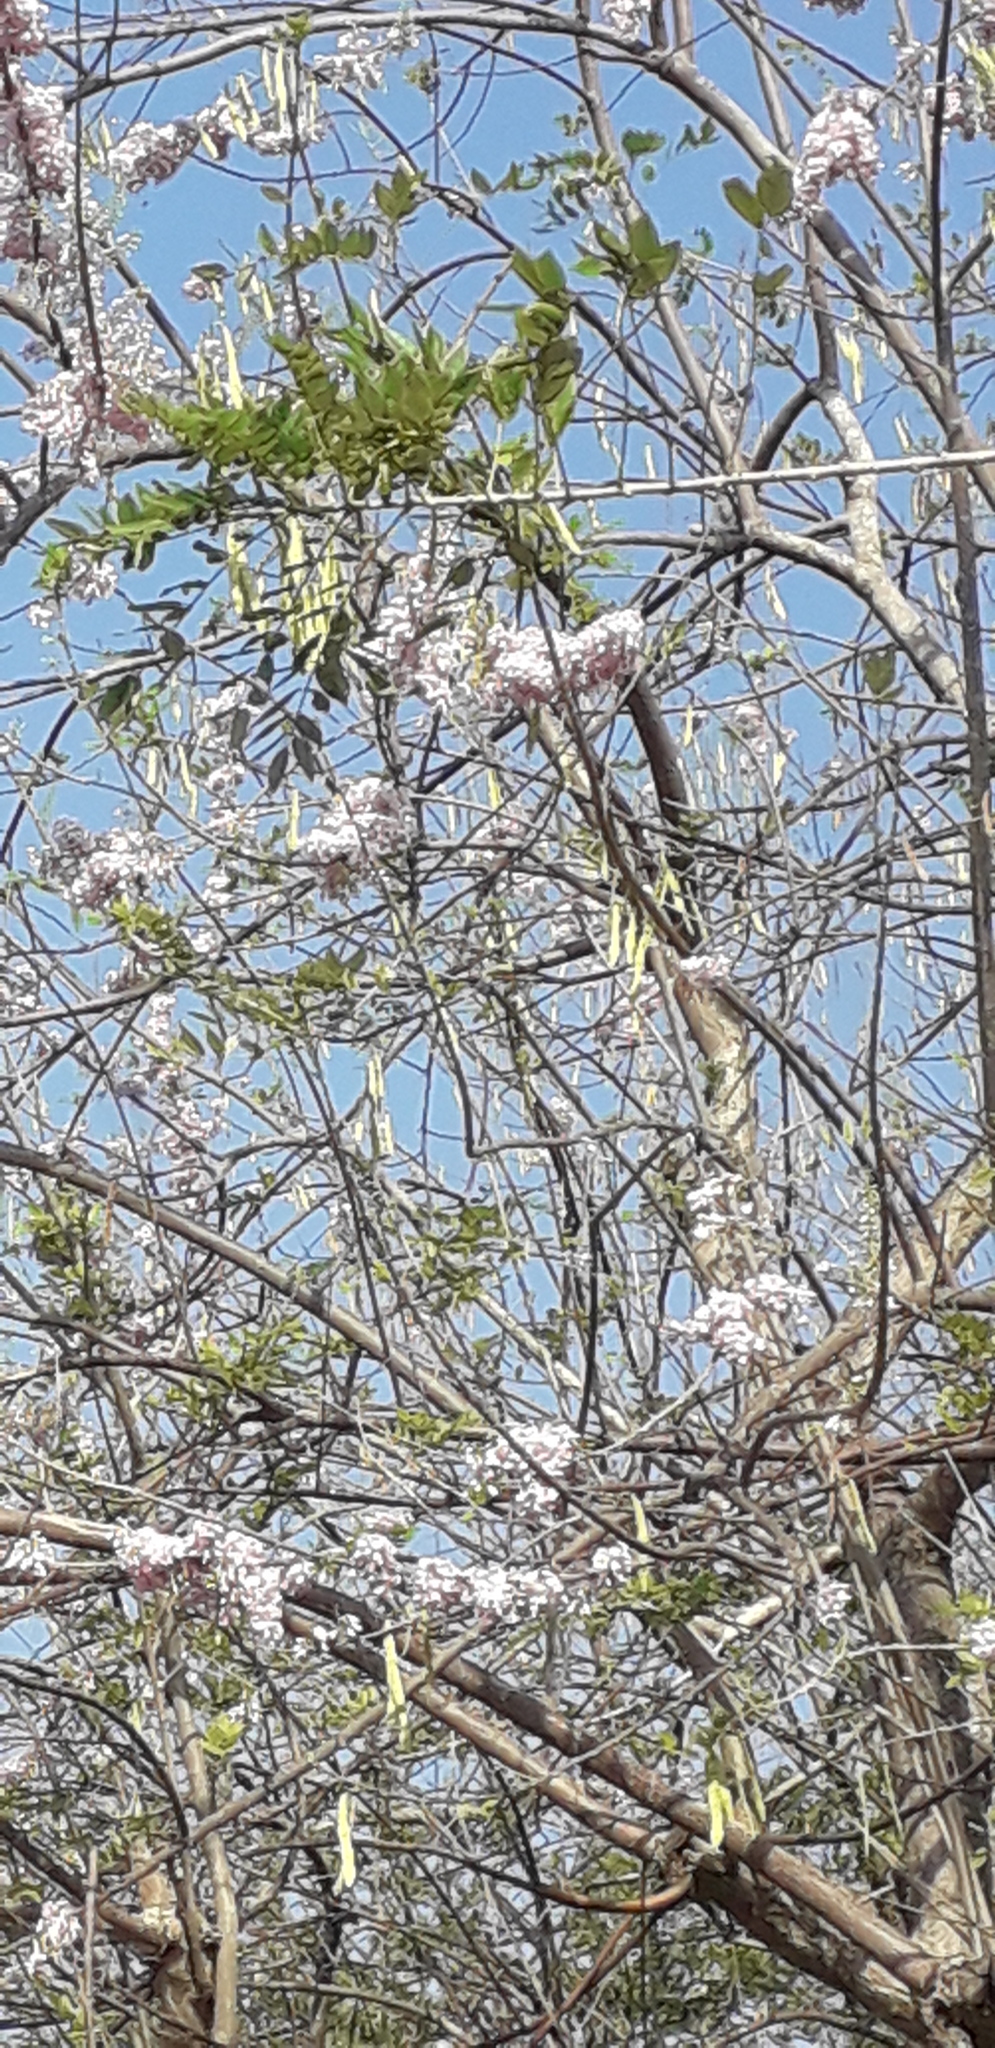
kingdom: Plantae
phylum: Tracheophyta
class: Magnoliopsida
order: Fabales
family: Fabaceae
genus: Gliricidia
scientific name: Gliricidia sepium
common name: Quickstick
